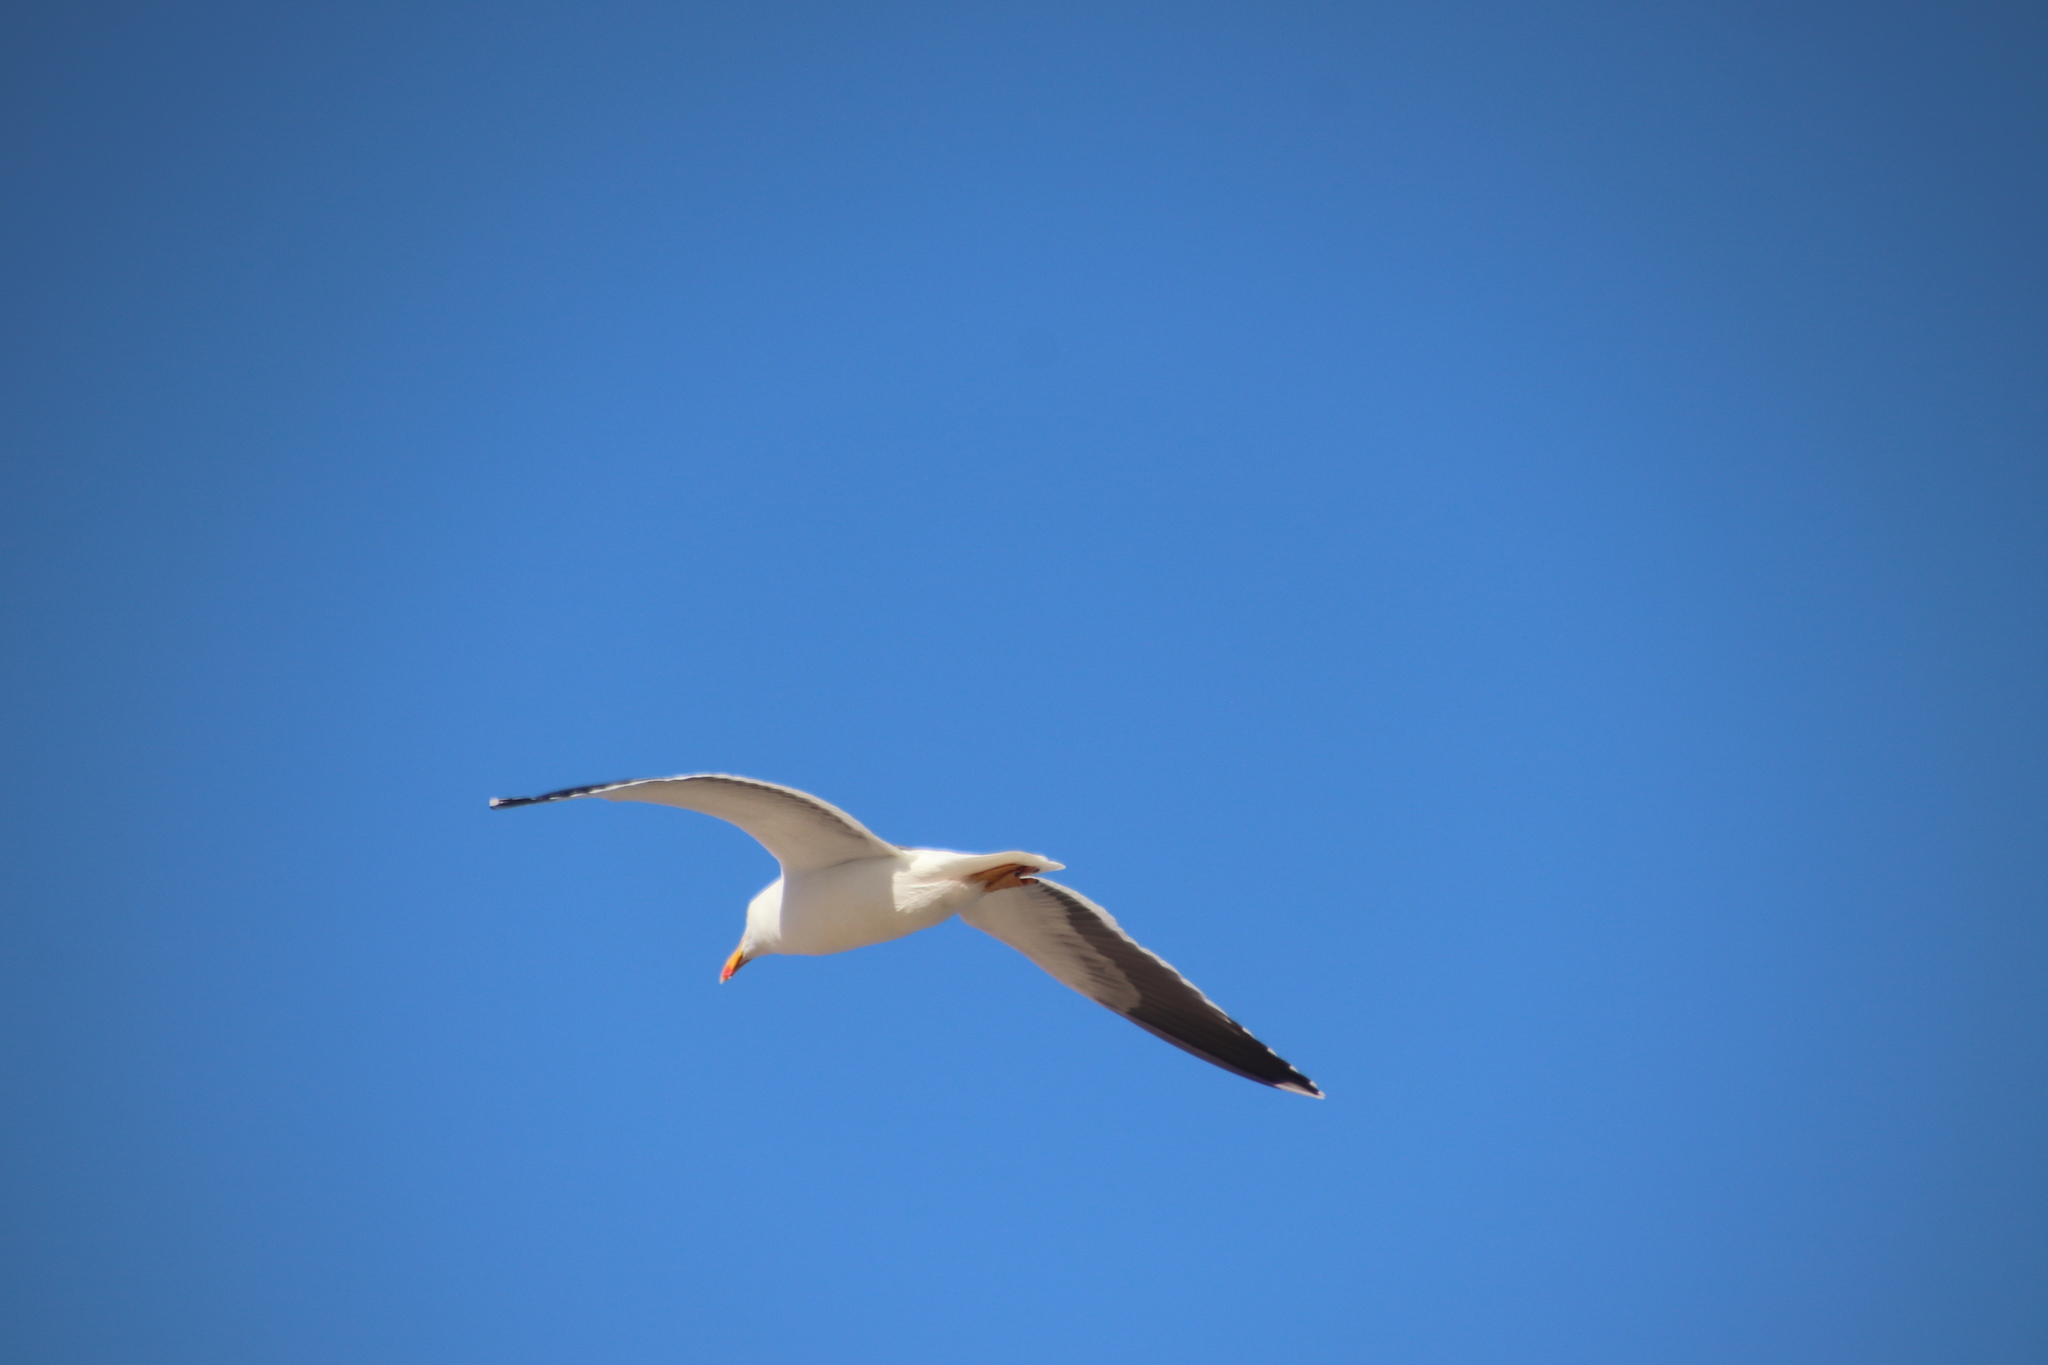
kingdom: Animalia
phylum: Chordata
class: Aves
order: Charadriiformes
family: Laridae
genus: Larus
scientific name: Larus livens
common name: Yellow-footed gull
